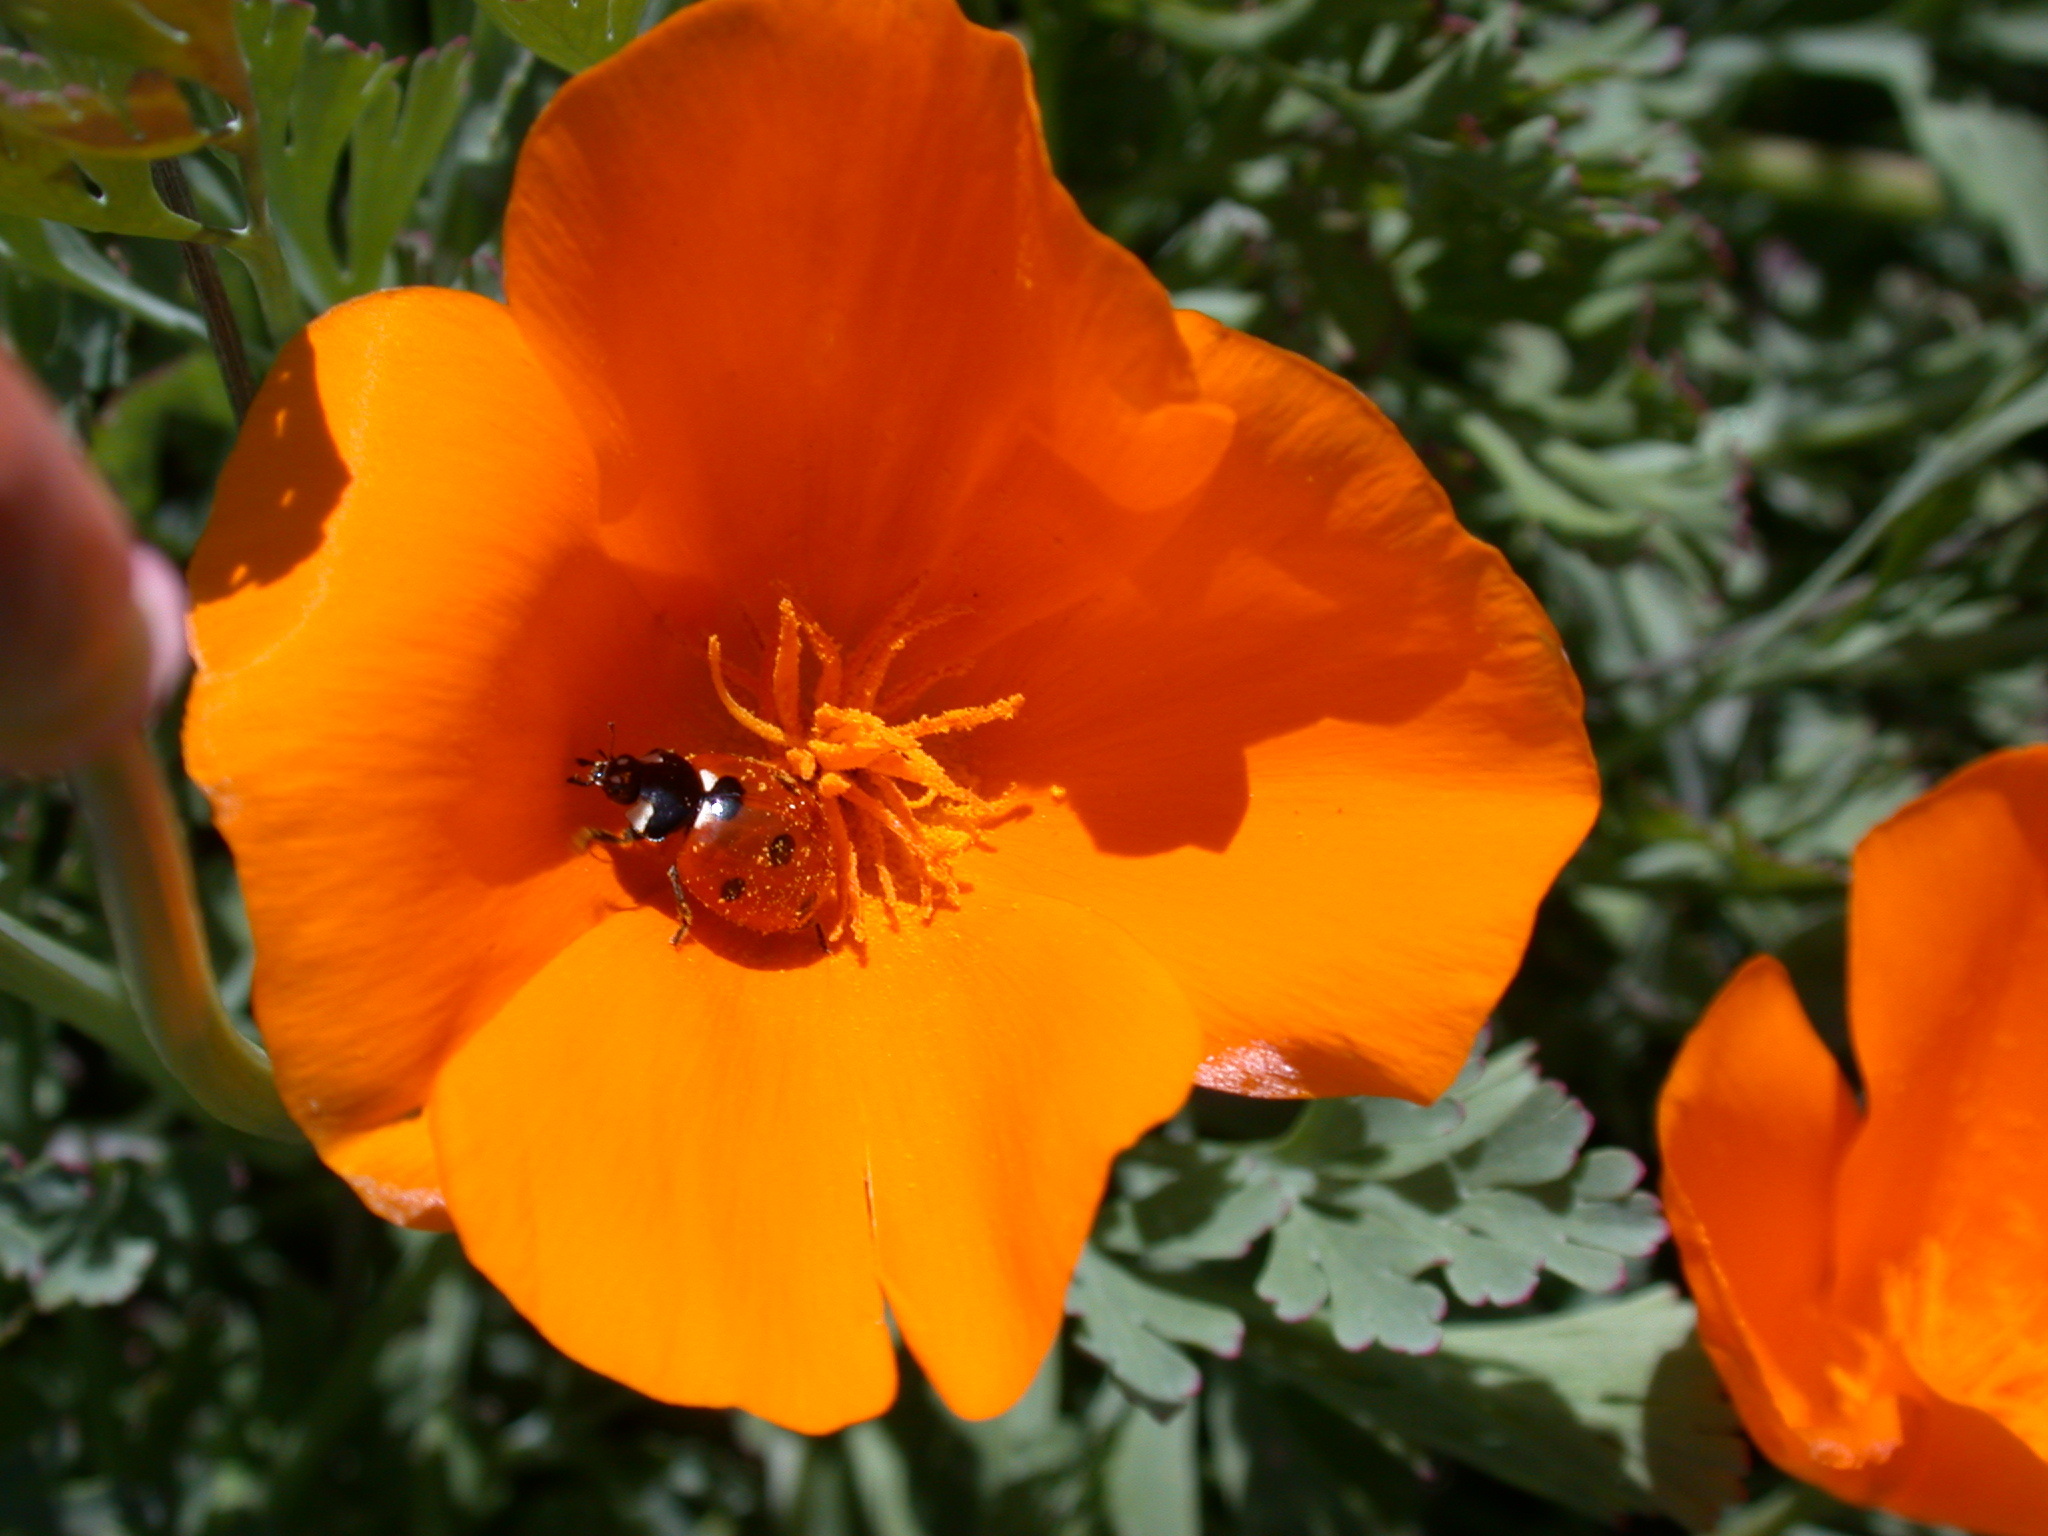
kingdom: Animalia
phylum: Arthropoda
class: Insecta
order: Coleoptera
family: Coccinellidae
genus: Coccinella
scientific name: Coccinella septempunctata
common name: Sevenspotted lady beetle
